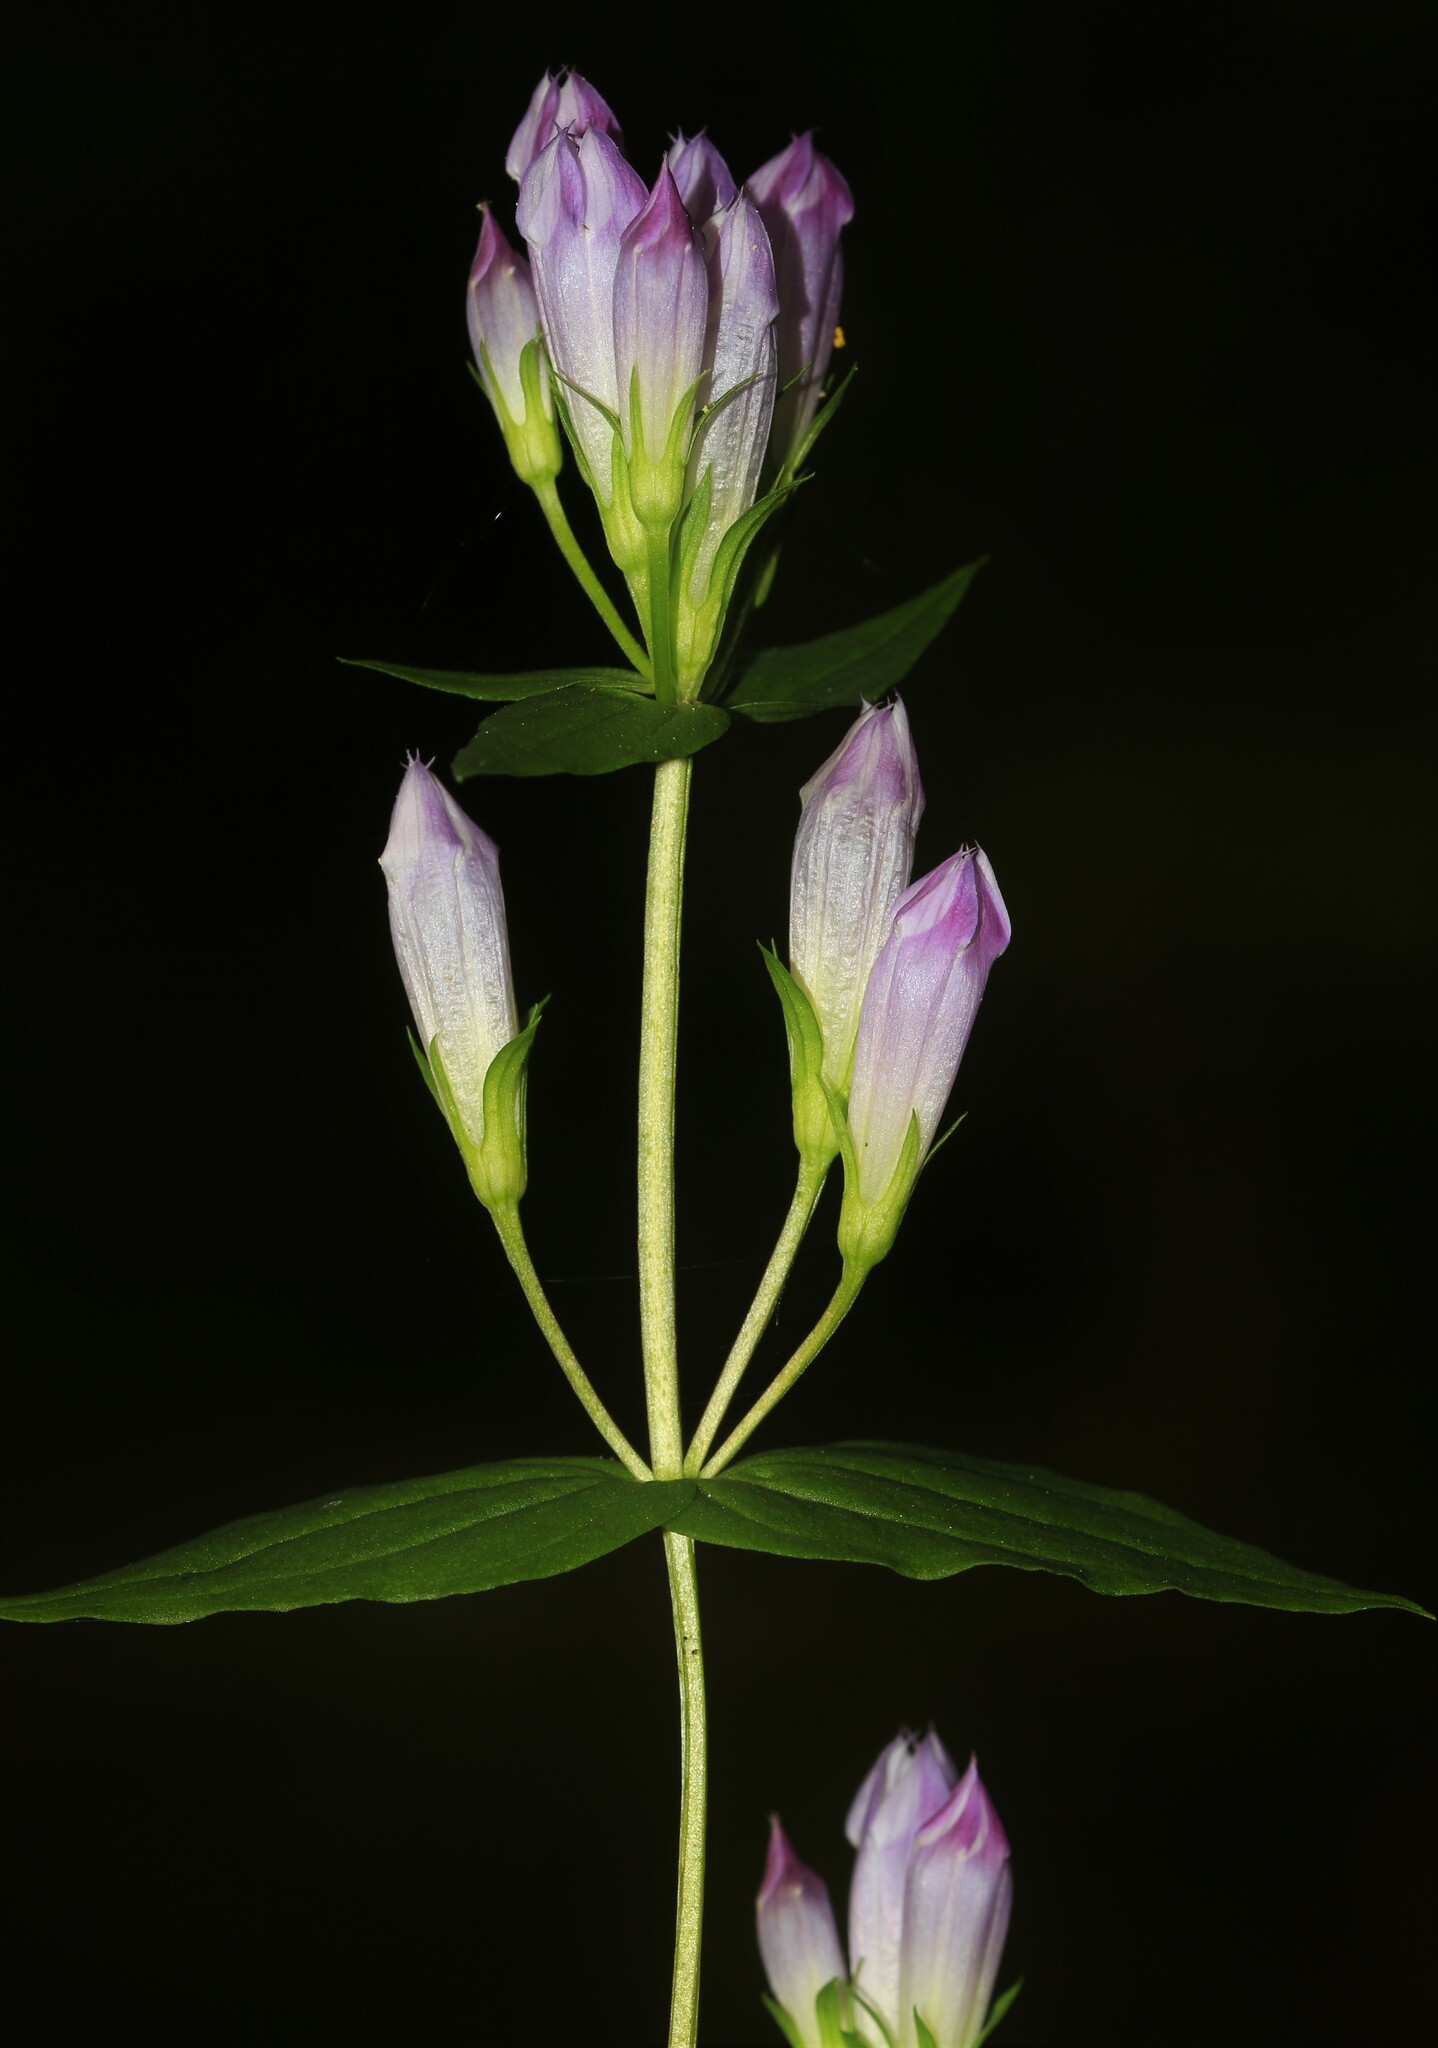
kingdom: Plantae
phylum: Tracheophyta
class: Magnoliopsida
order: Gentianales
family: Gentianaceae
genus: Gentianella
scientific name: Gentianella quinquefolia
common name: Agueweed
